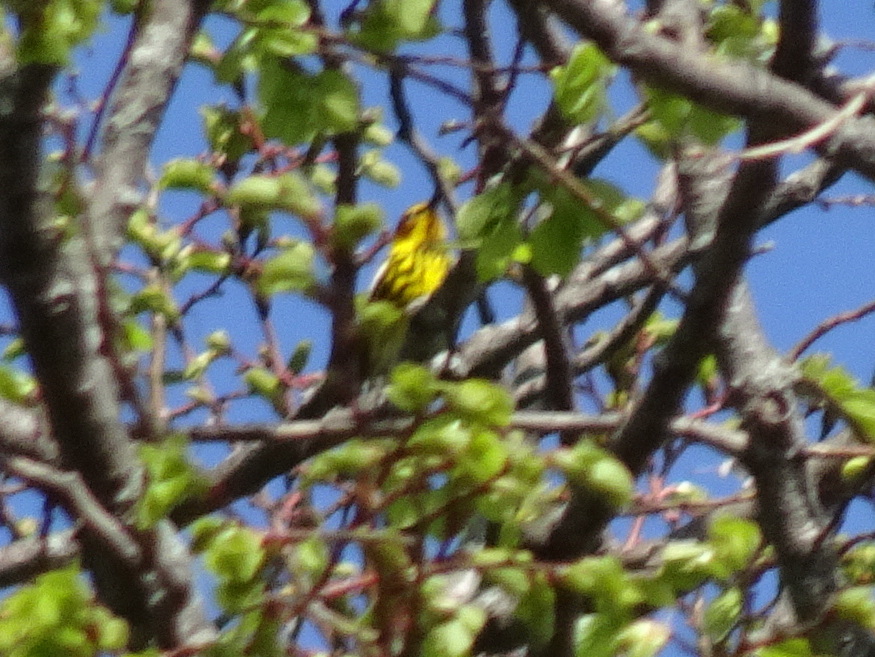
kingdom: Animalia
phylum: Chordata
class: Aves
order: Passeriformes
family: Parulidae
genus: Setophaga
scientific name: Setophaga tigrina
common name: Cape may warbler
